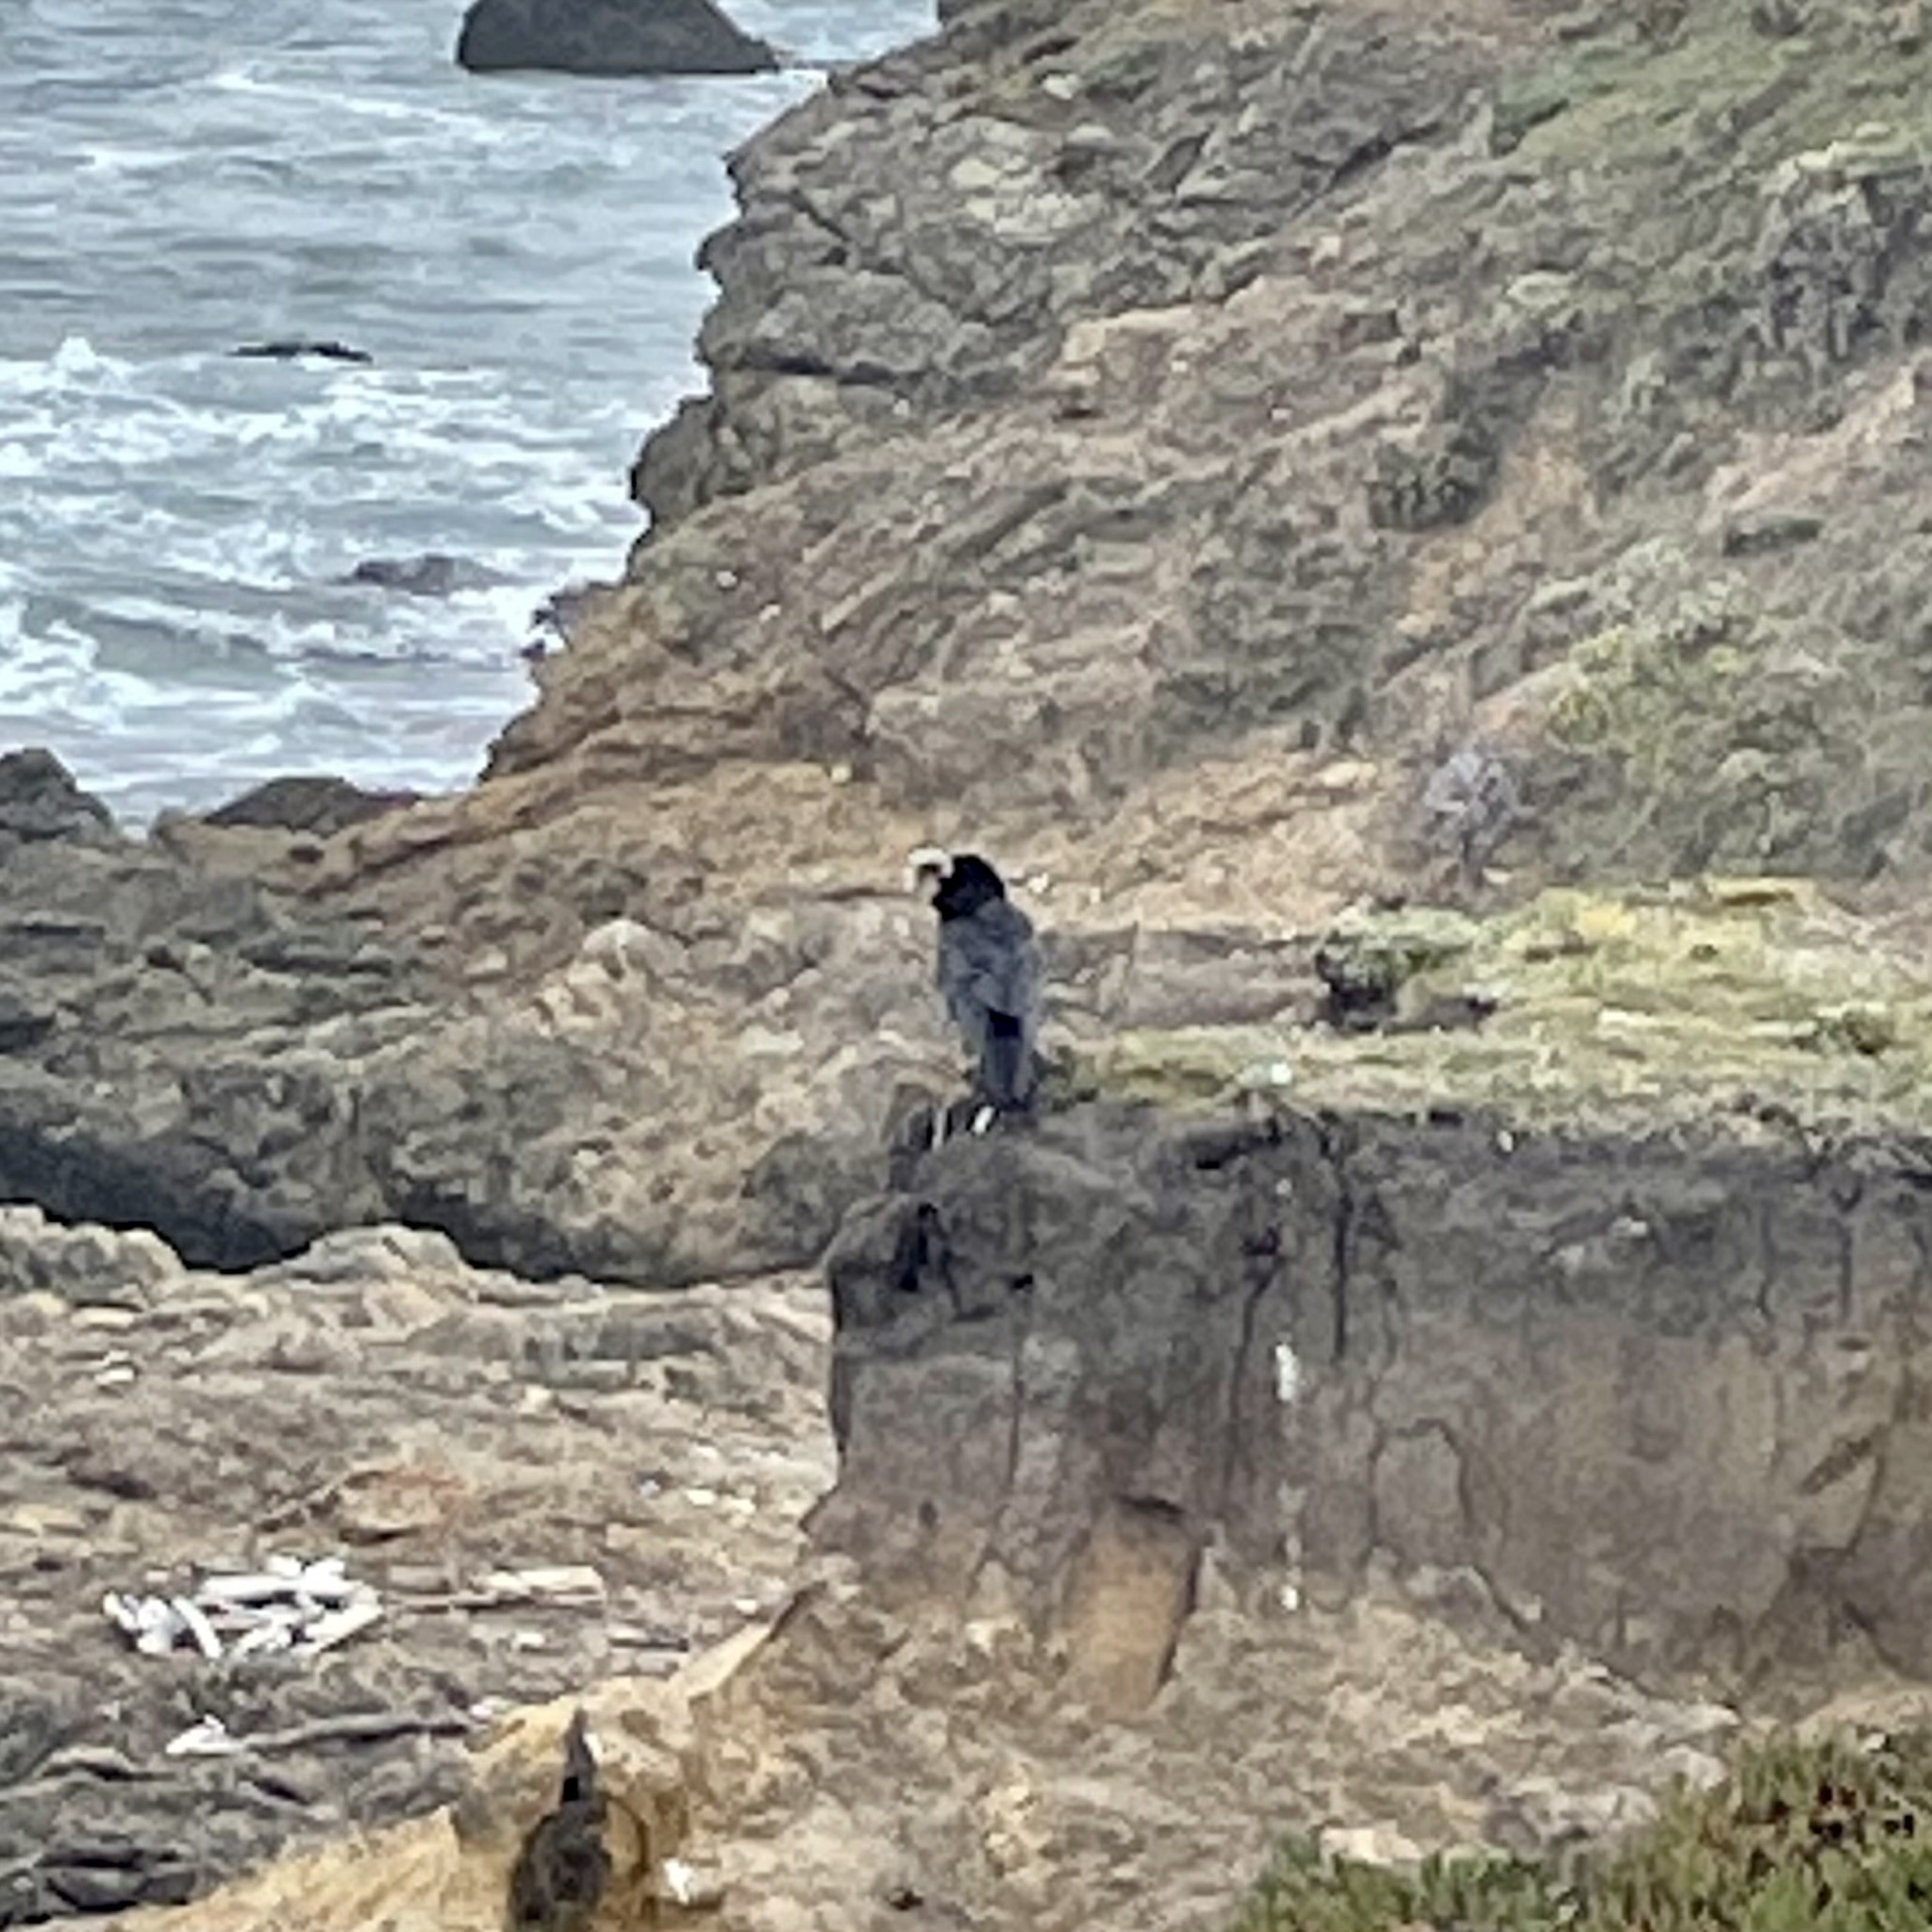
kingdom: Animalia
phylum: Chordata
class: Aves
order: Passeriformes
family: Corvidae
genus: Corvus
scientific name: Corvus brachyrhynchos
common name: American crow
